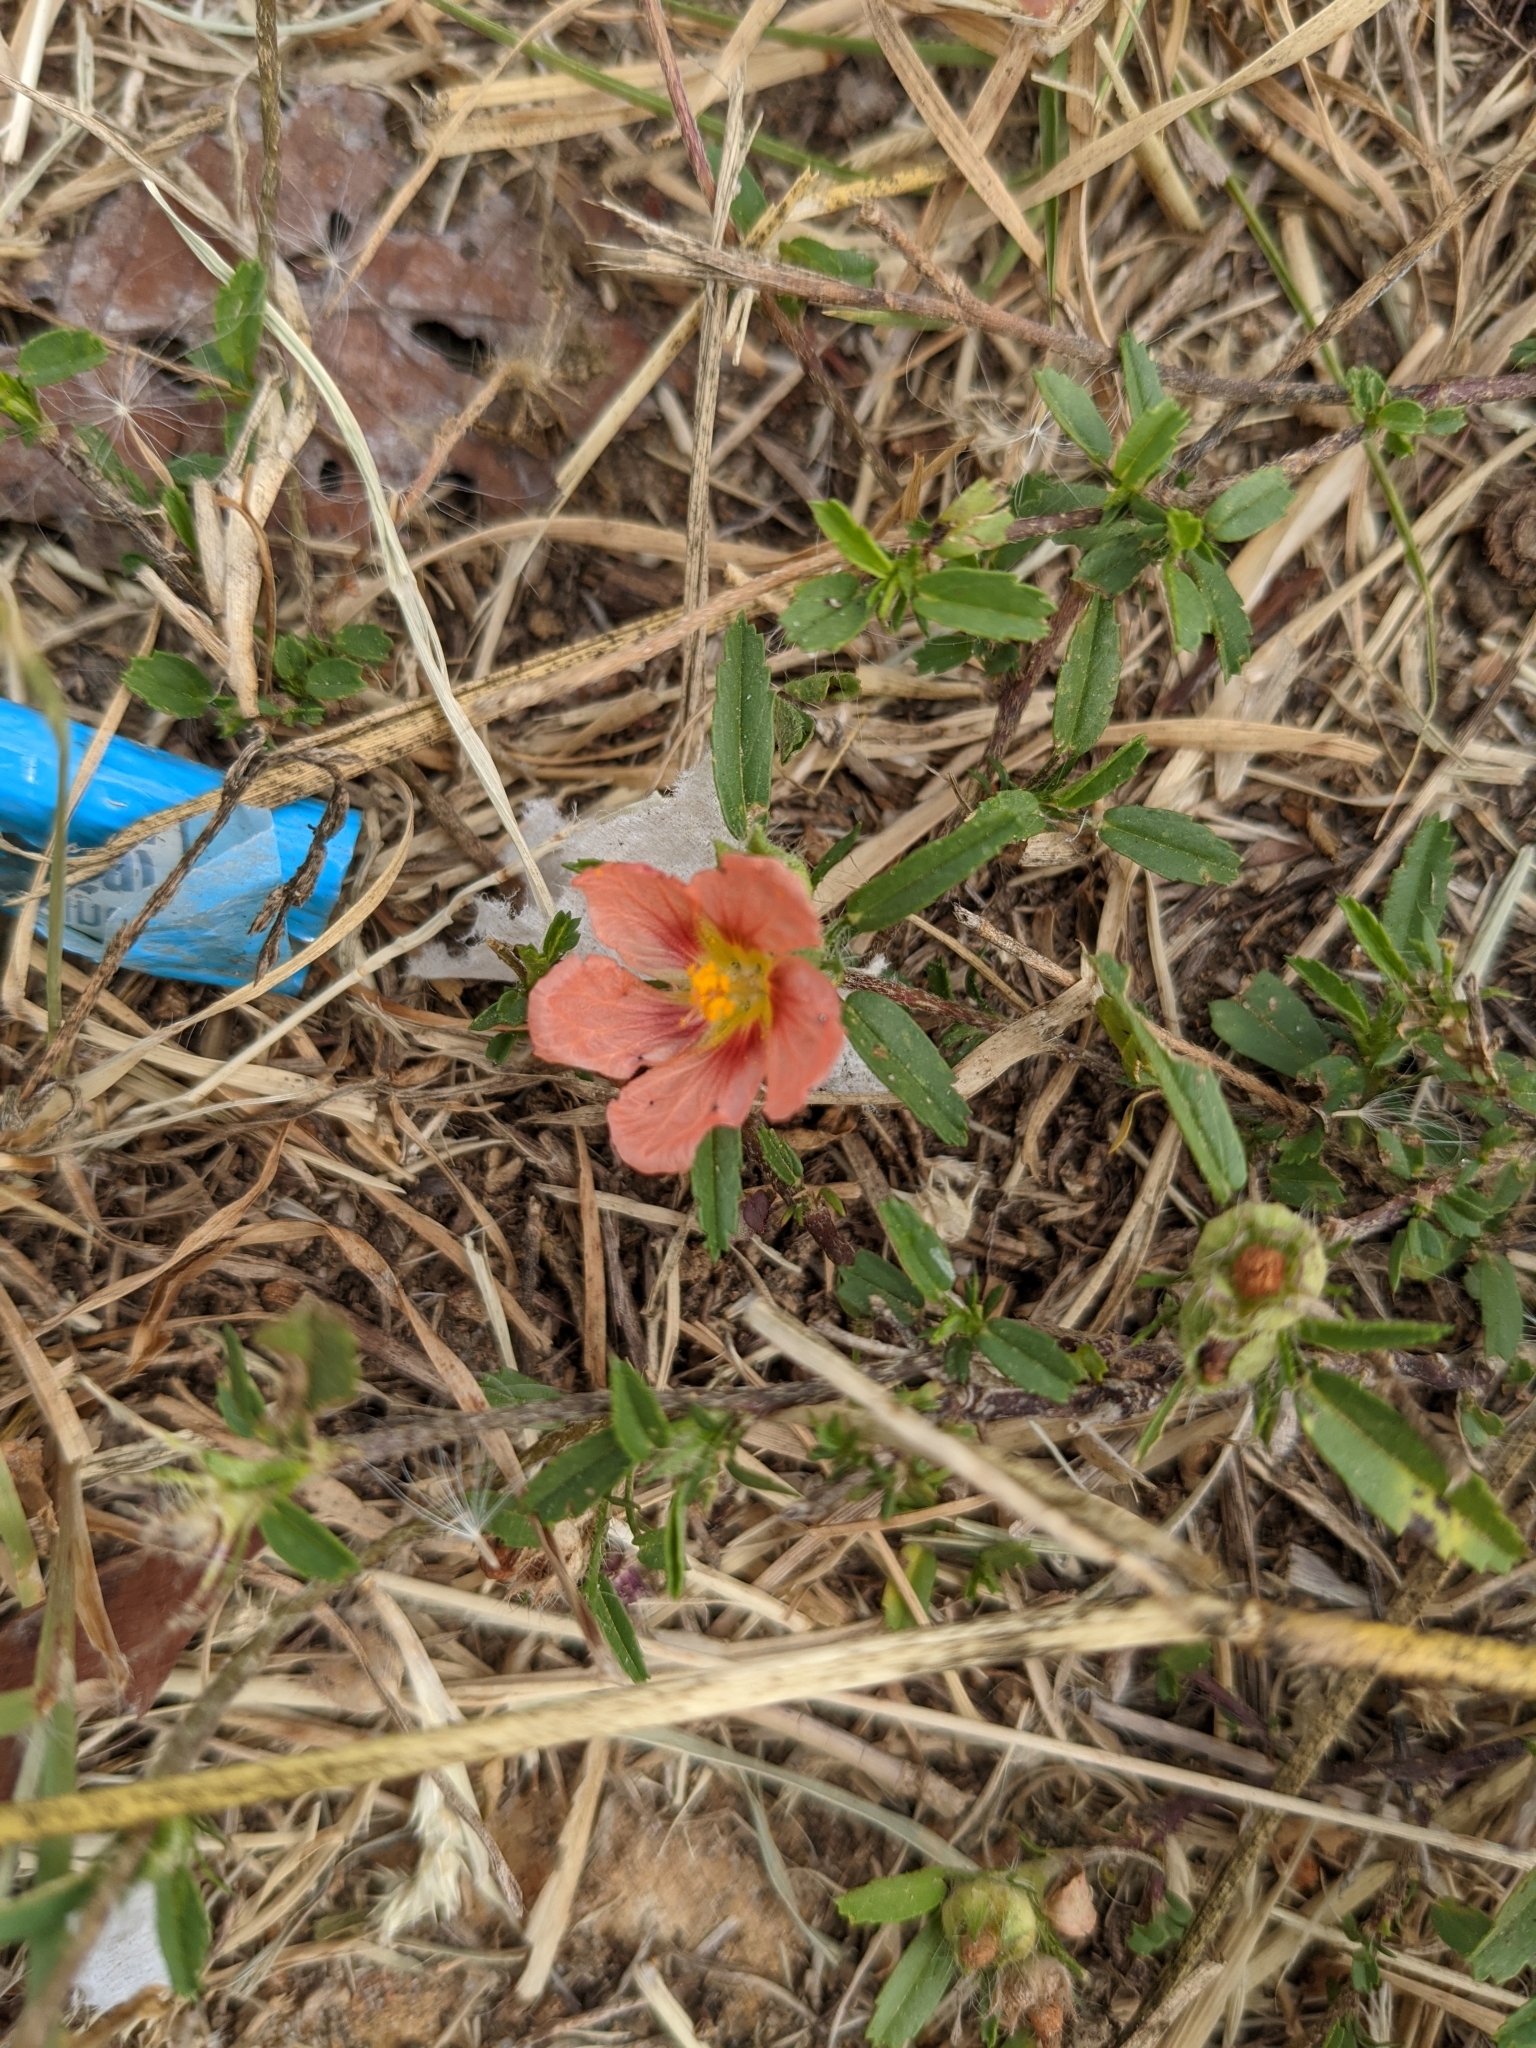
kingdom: Plantae
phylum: Tracheophyta
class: Magnoliopsida
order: Malvales
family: Malvaceae
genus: Sida
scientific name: Sida ciliaris
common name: Bracted fanpetals
